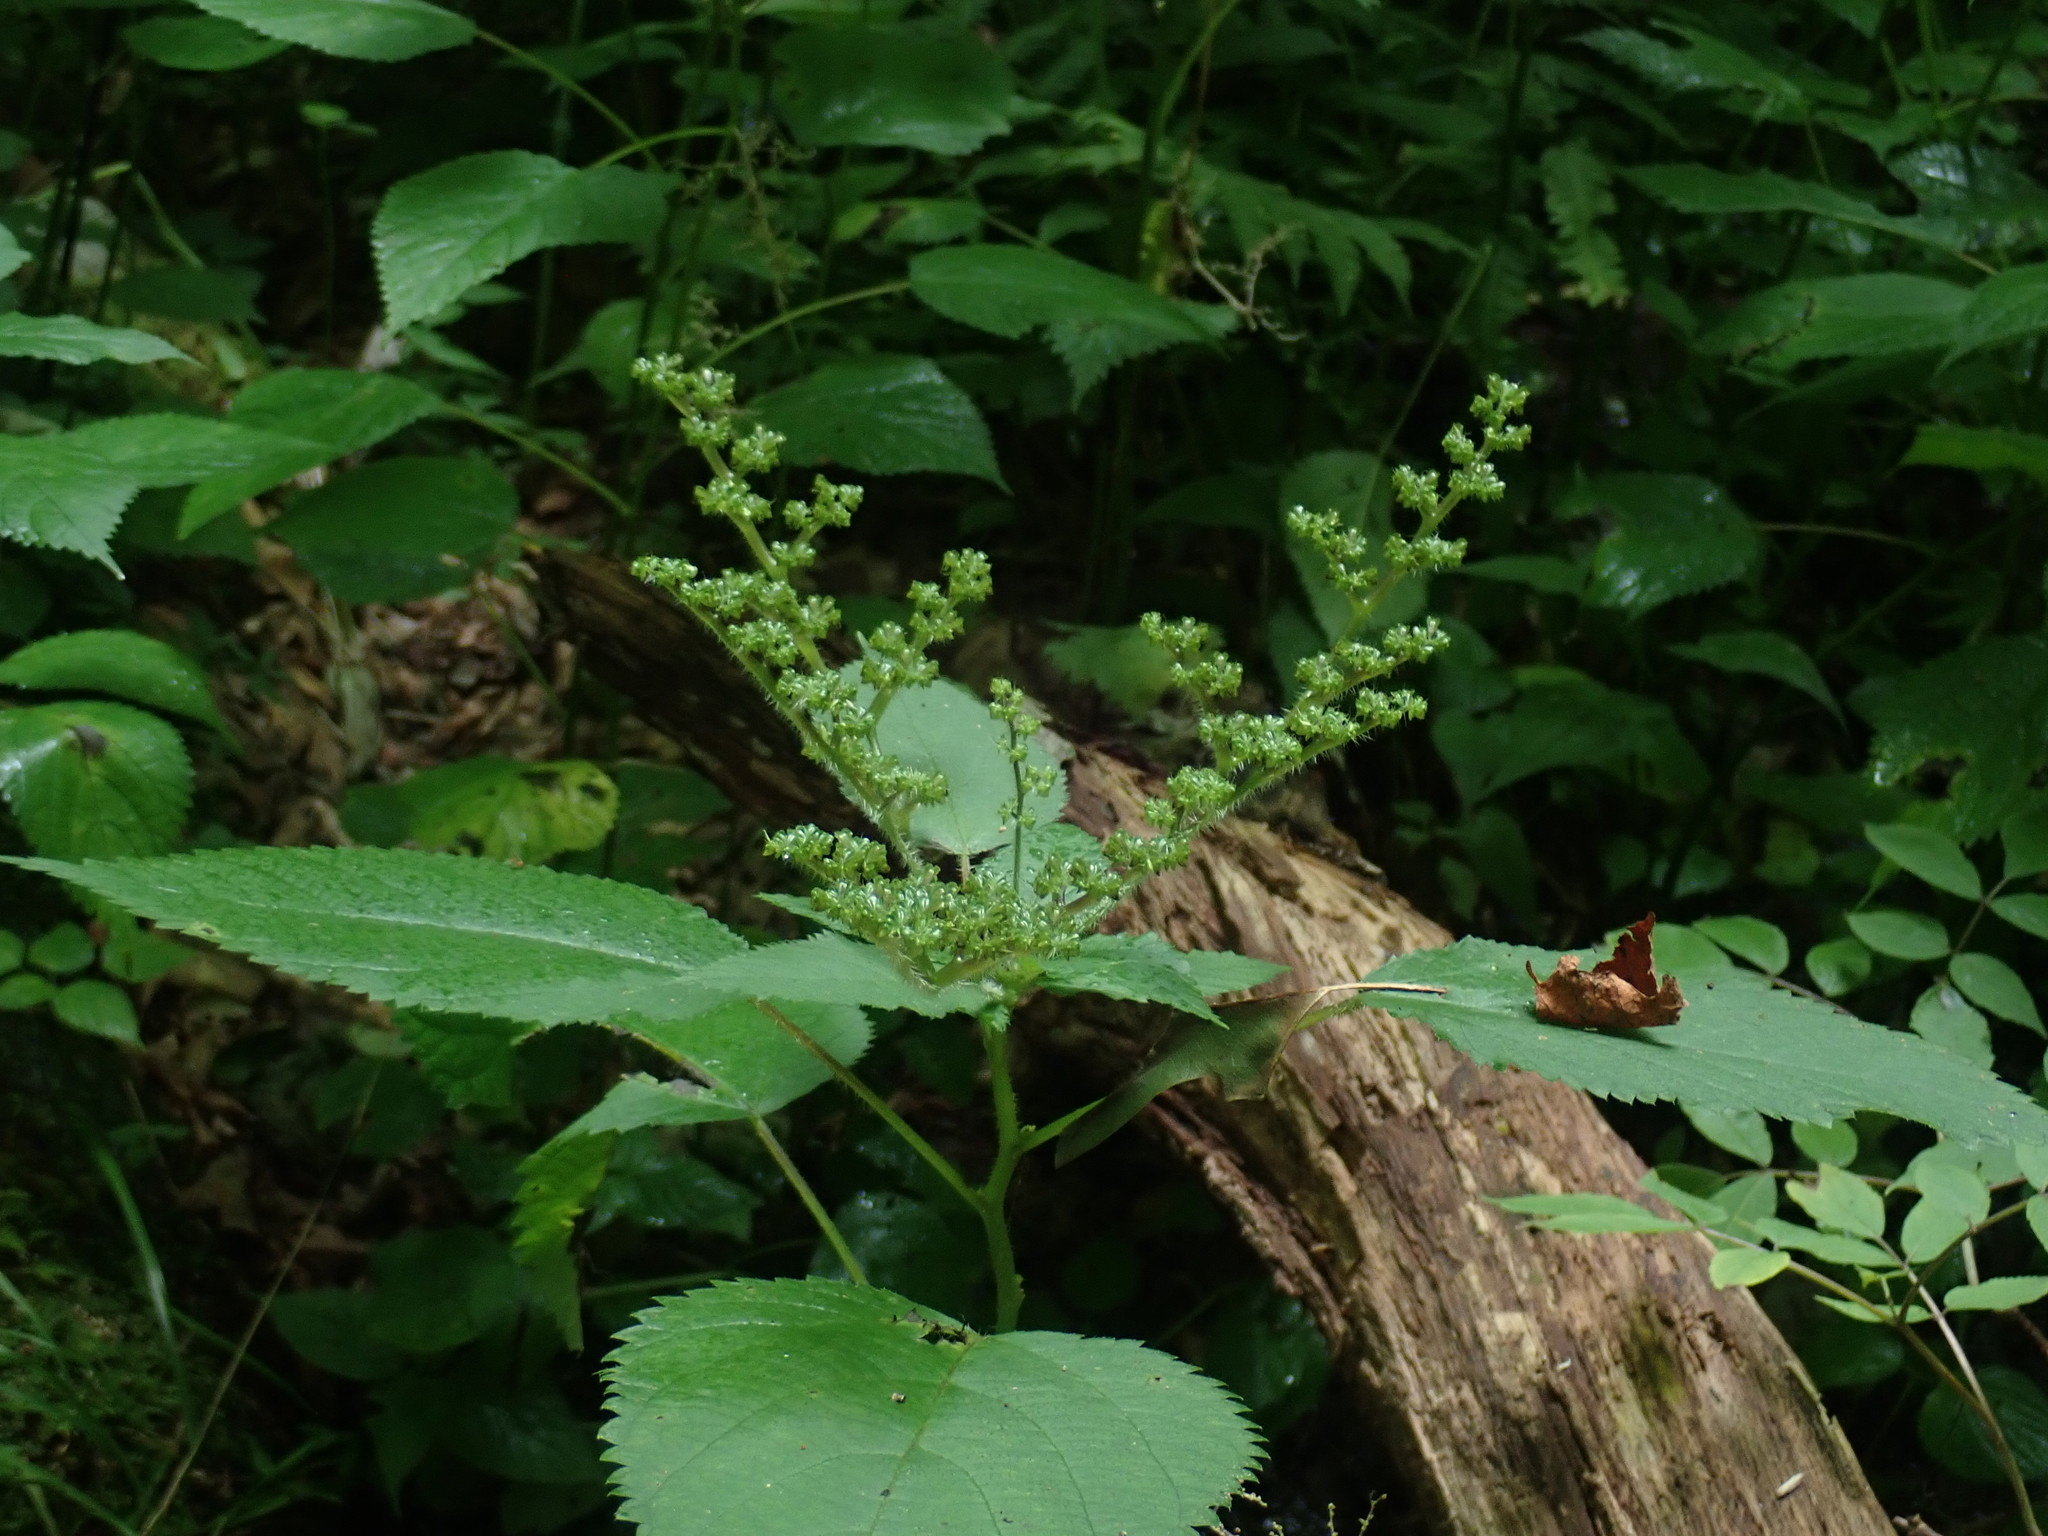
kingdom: Plantae
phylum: Tracheophyta
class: Magnoliopsida
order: Rosales
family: Urticaceae
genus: Laportea
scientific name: Laportea canadensis
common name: Canada nettle
